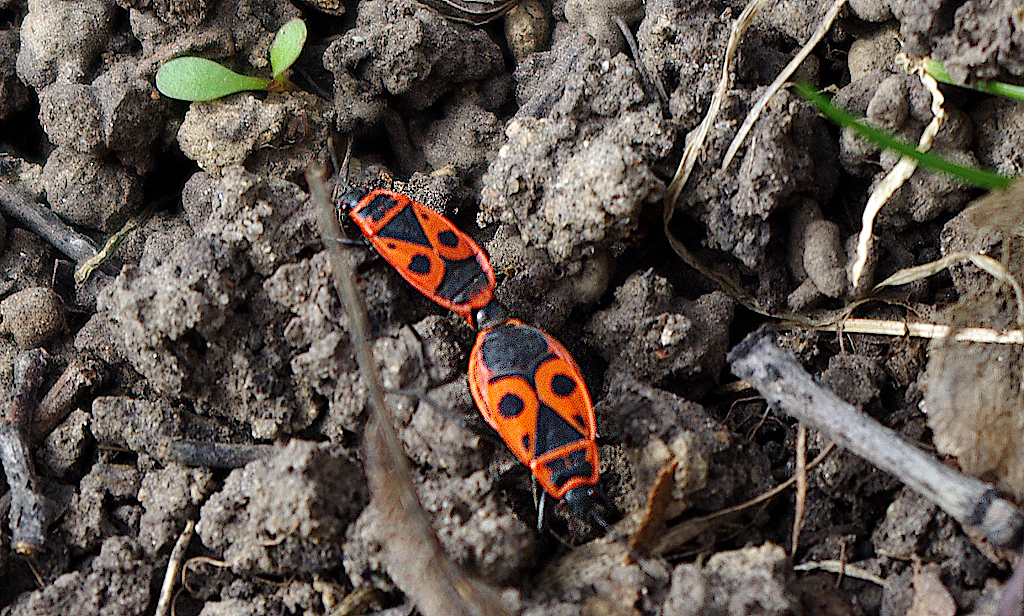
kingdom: Animalia
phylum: Arthropoda
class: Insecta
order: Hemiptera
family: Pyrrhocoridae
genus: Pyrrhocoris
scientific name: Pyrrhocoris apterus
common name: Firebug
